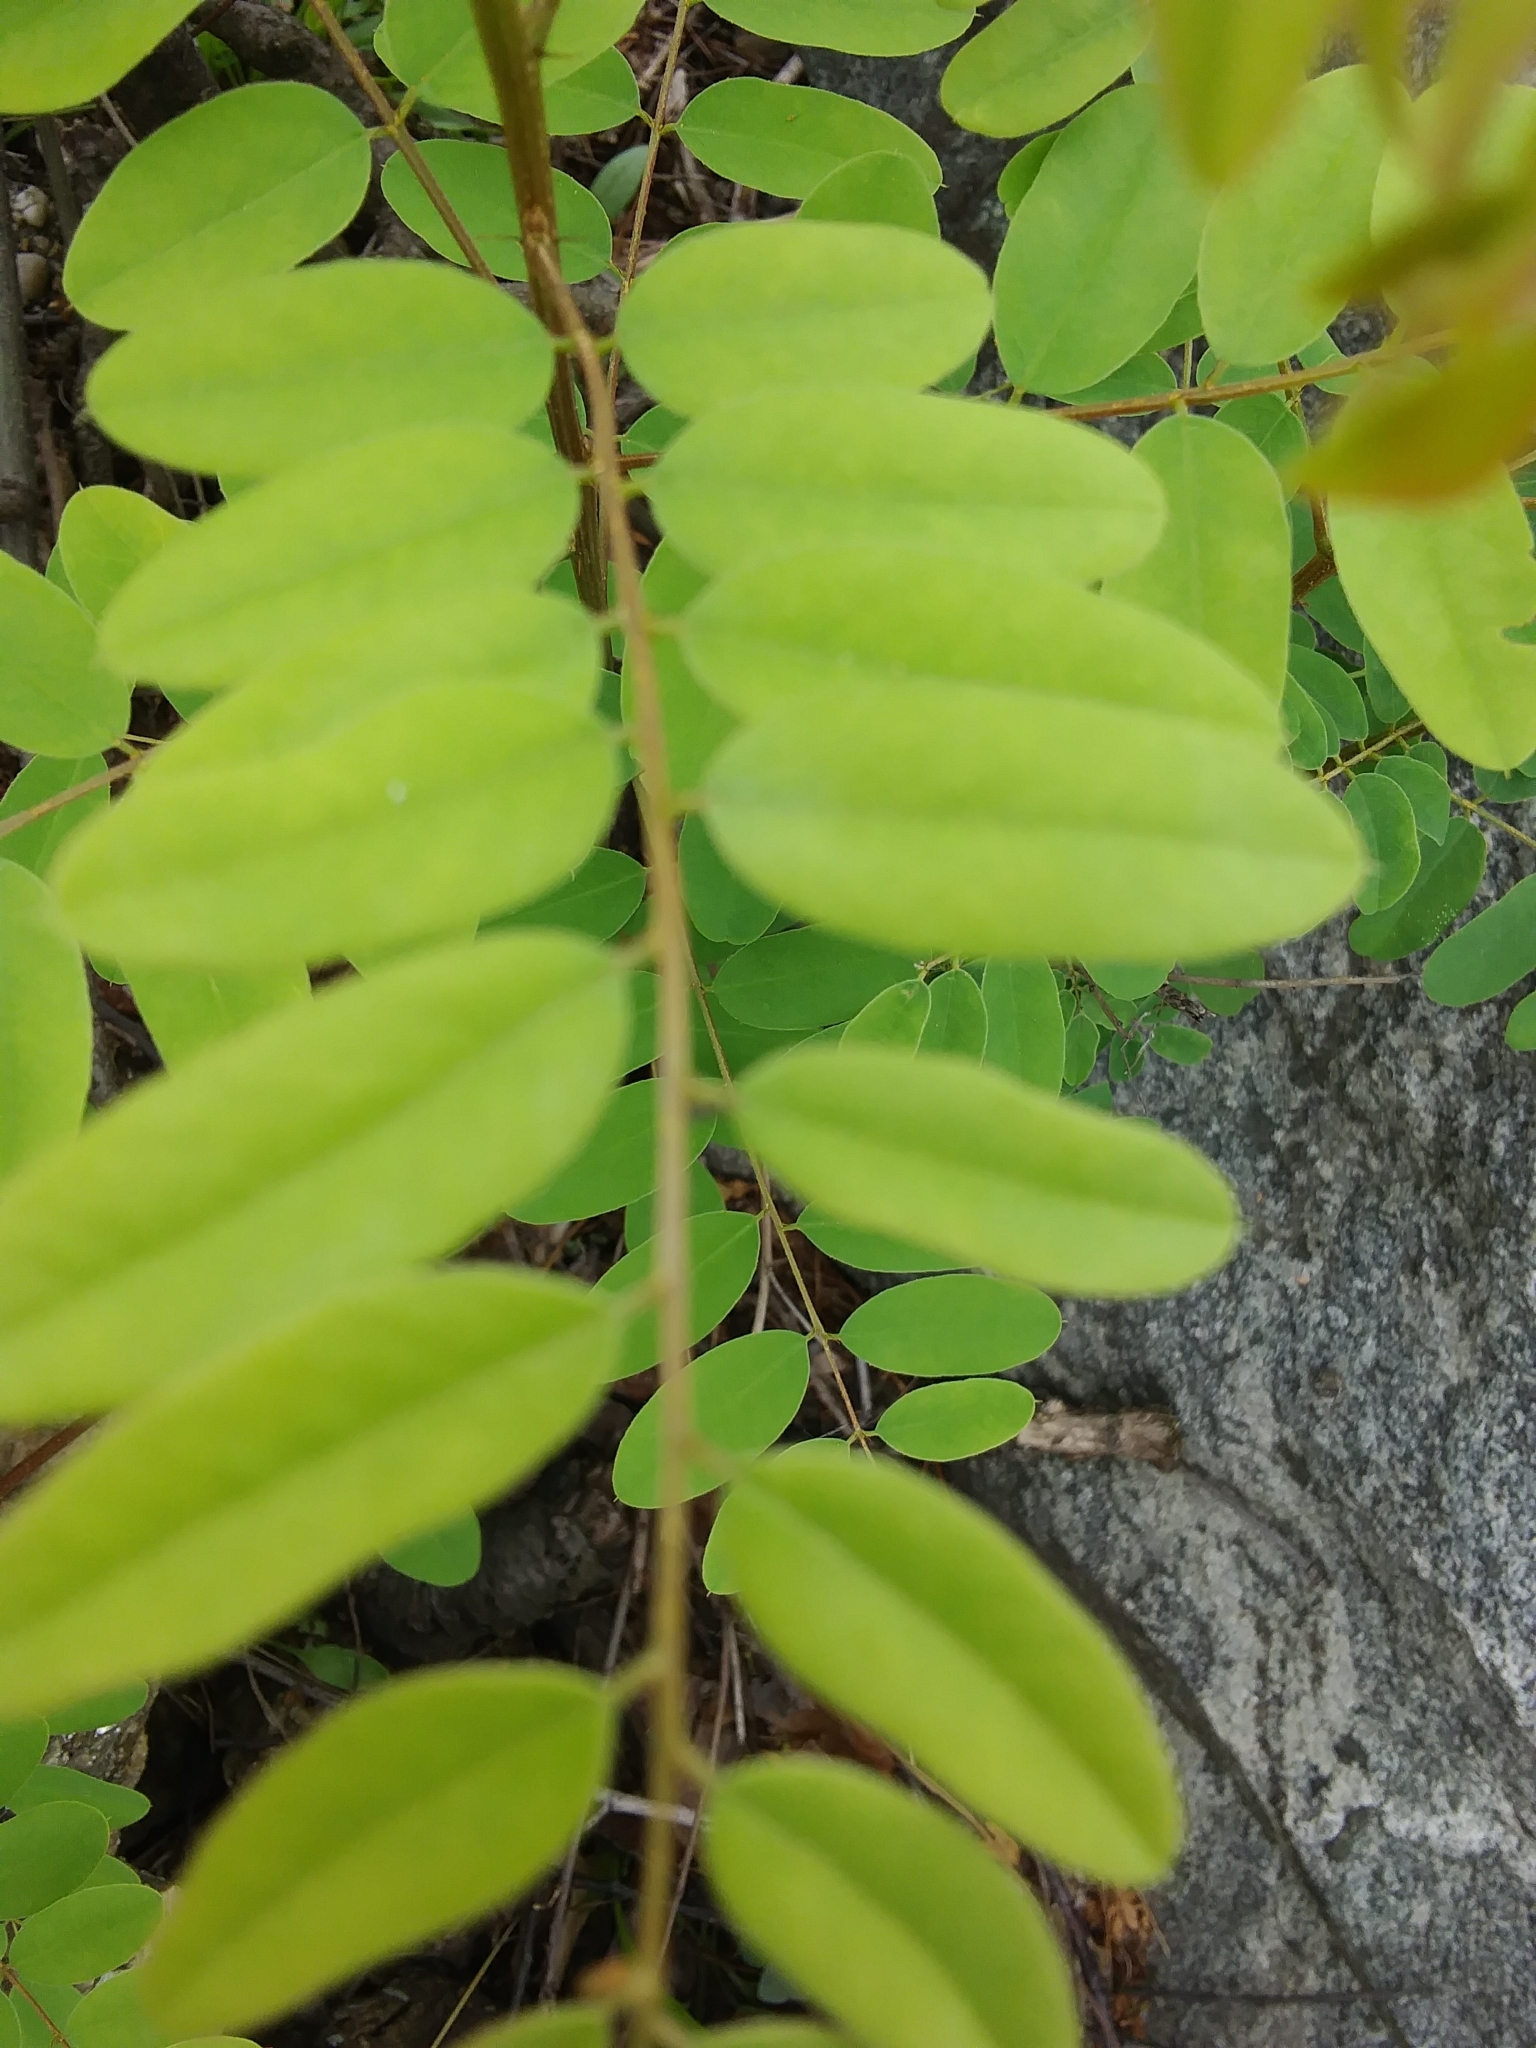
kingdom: Plantae
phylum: Tracheophyta
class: Magnoliopsida
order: Fabales
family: Fabaceae
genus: Robinia
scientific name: Robinia pseudoacacia
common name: Black locust
